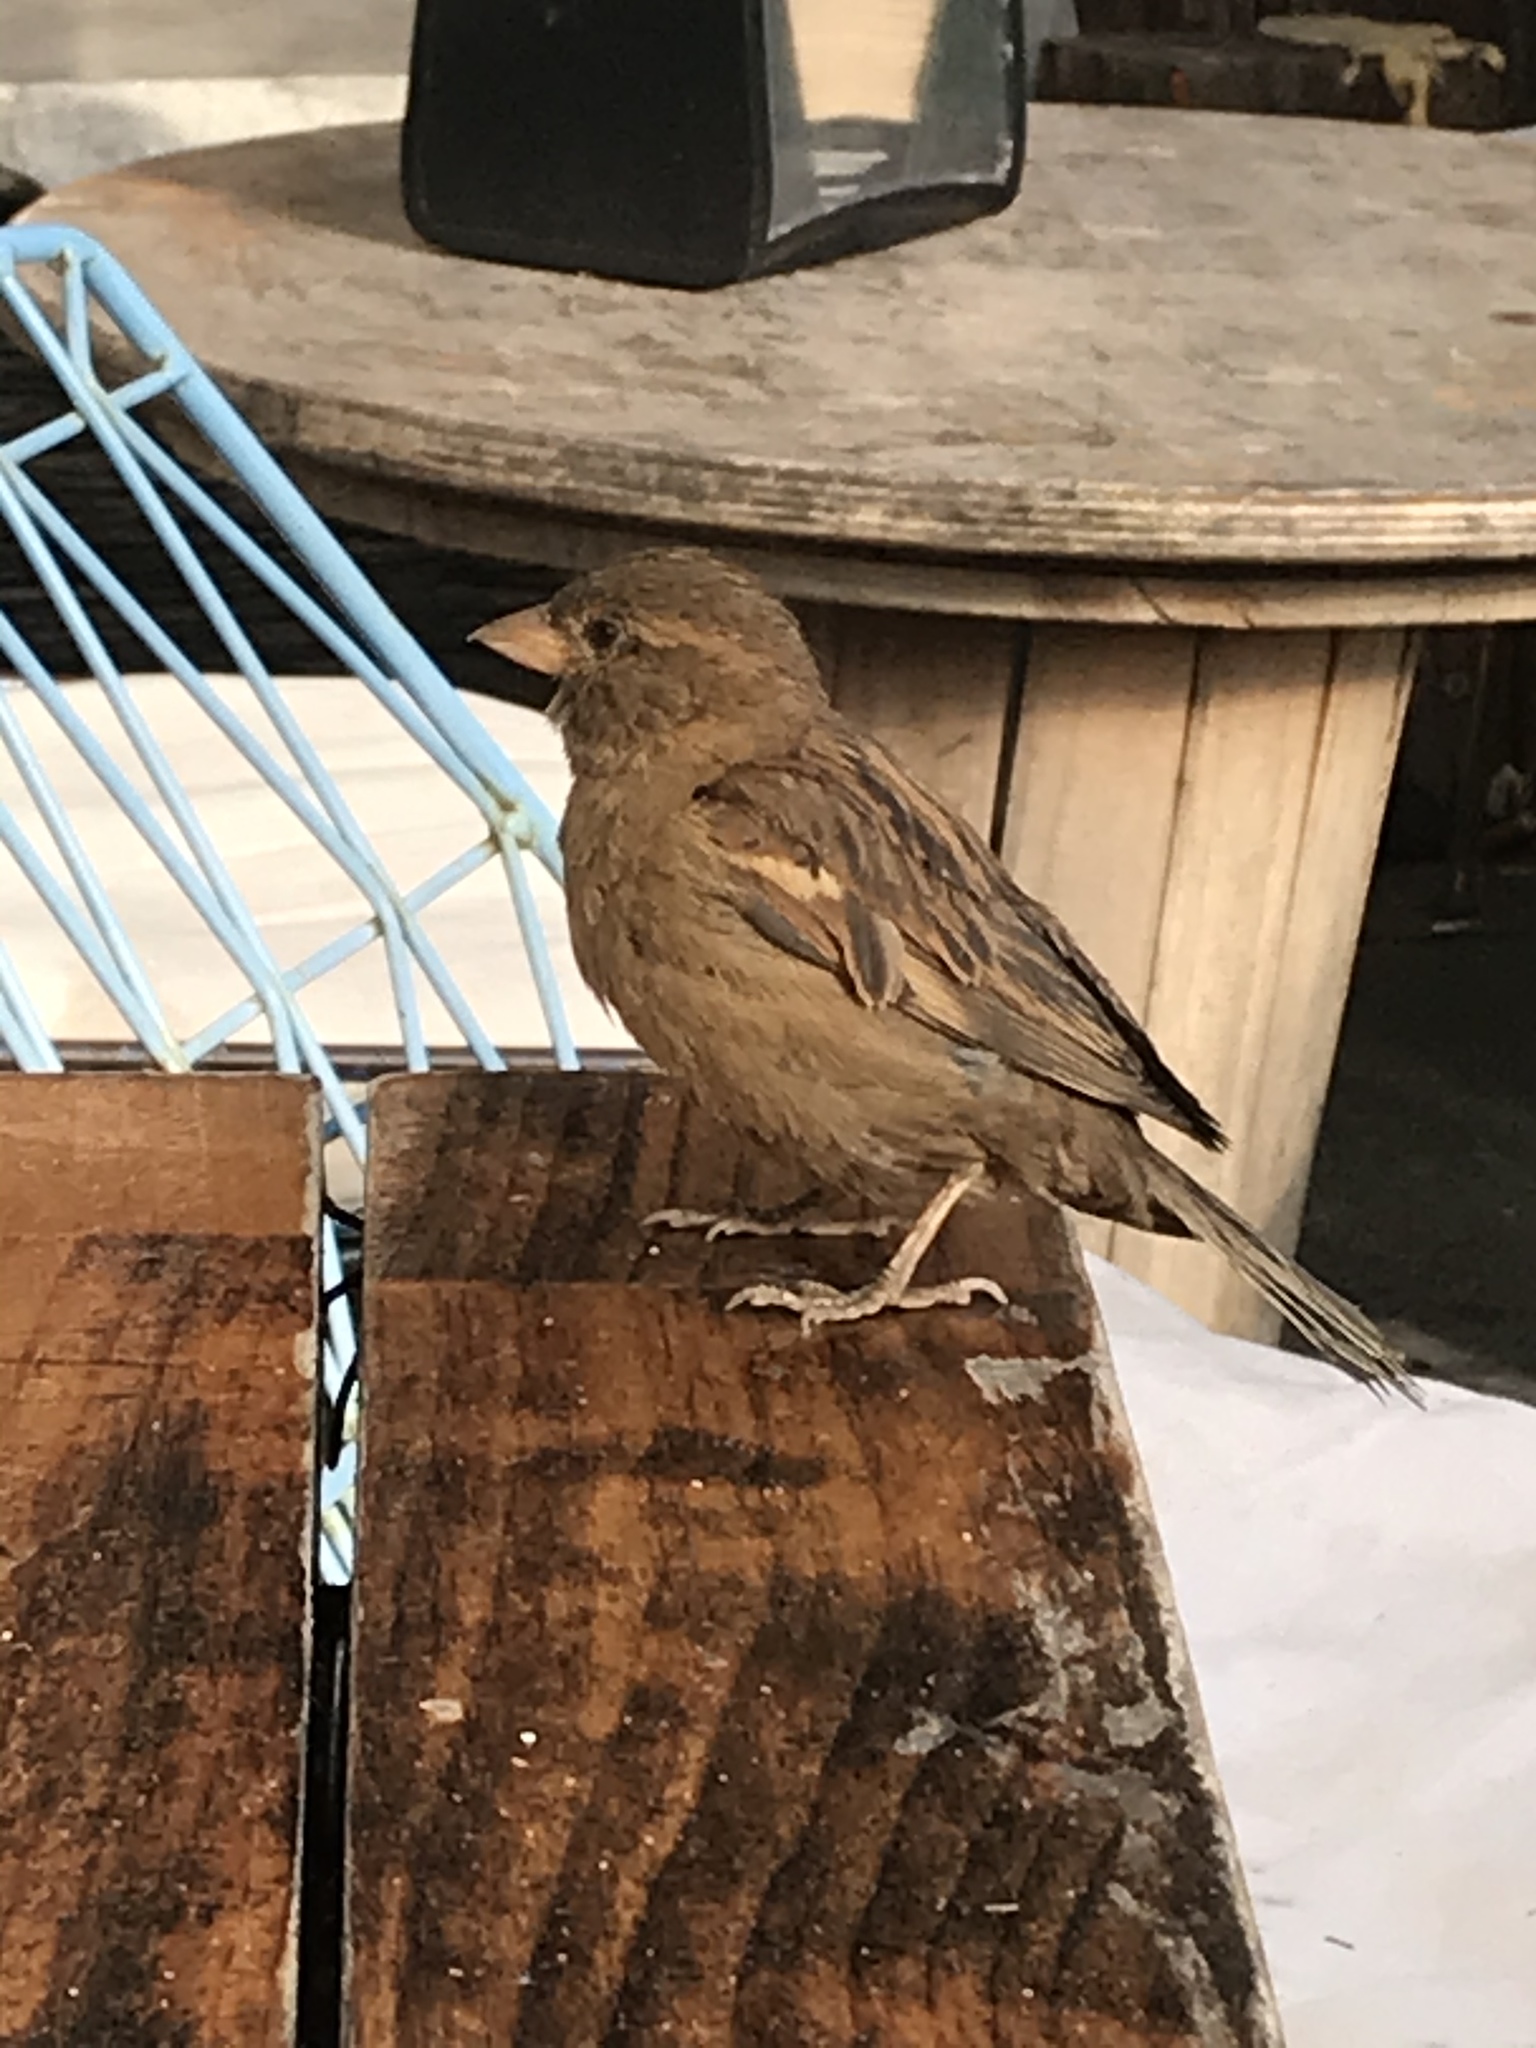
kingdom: Animalia
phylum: Chordata
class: Aves
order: Passeriformes
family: Passeridae
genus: Passer
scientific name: Passer domesticus
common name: House sparrow
